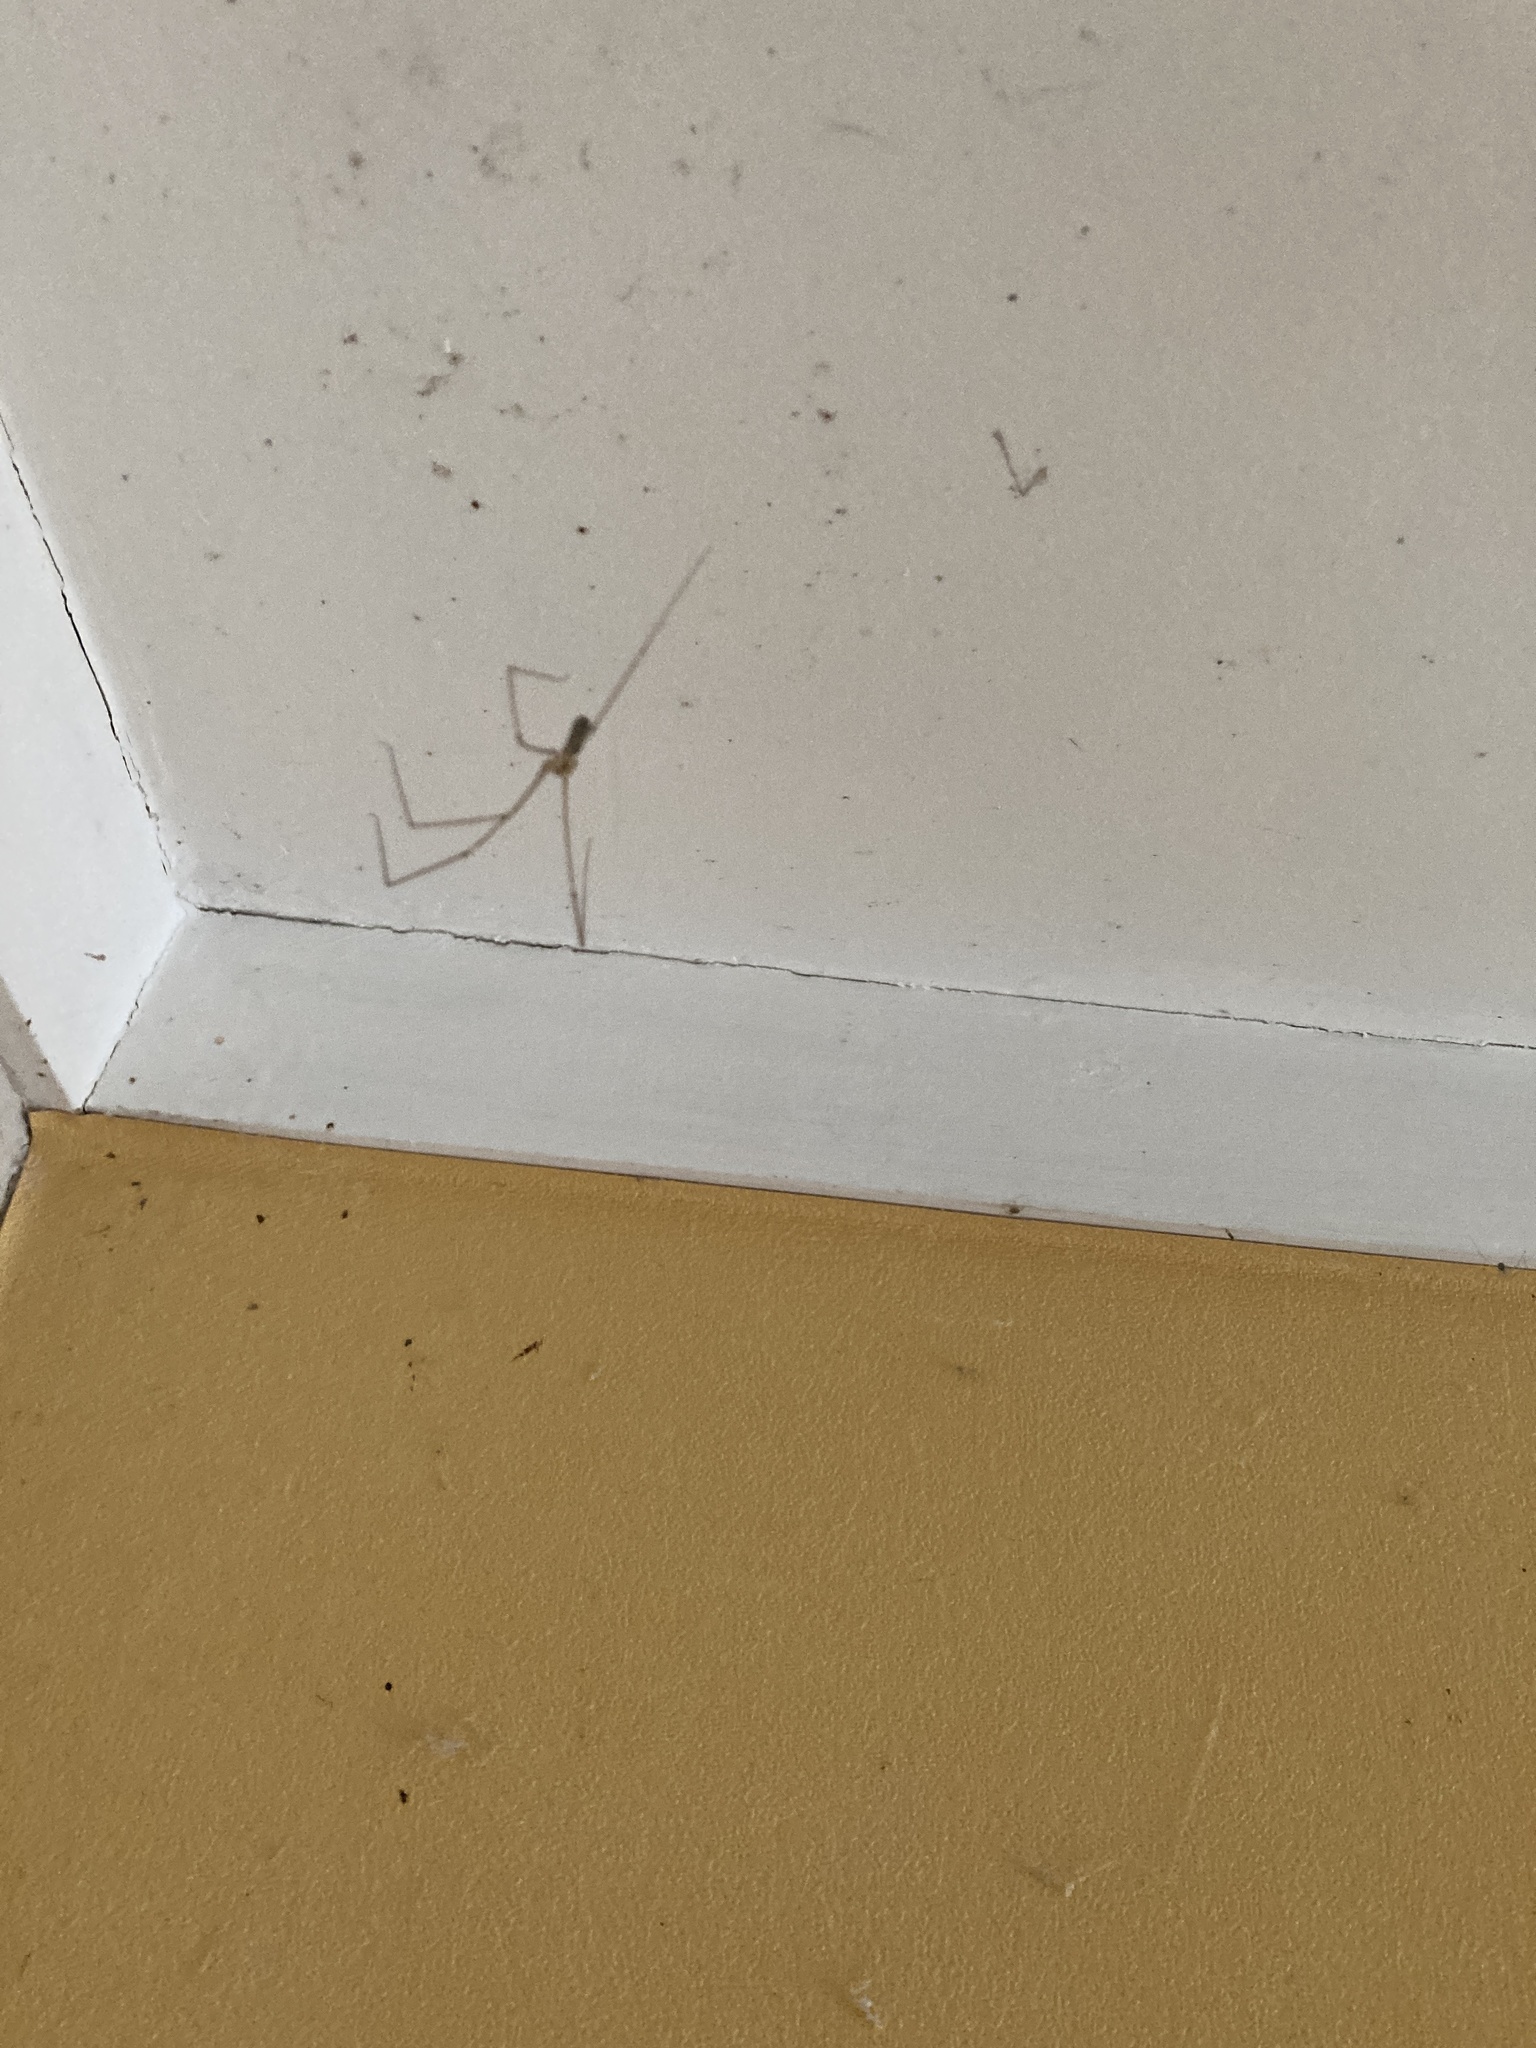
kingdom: Animalia
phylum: Arthropoda
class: Arachnida
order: Araneae
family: Pholcidae
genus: Pholcus
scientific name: Pholcus phalangioides
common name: Longbodied cellar spider
